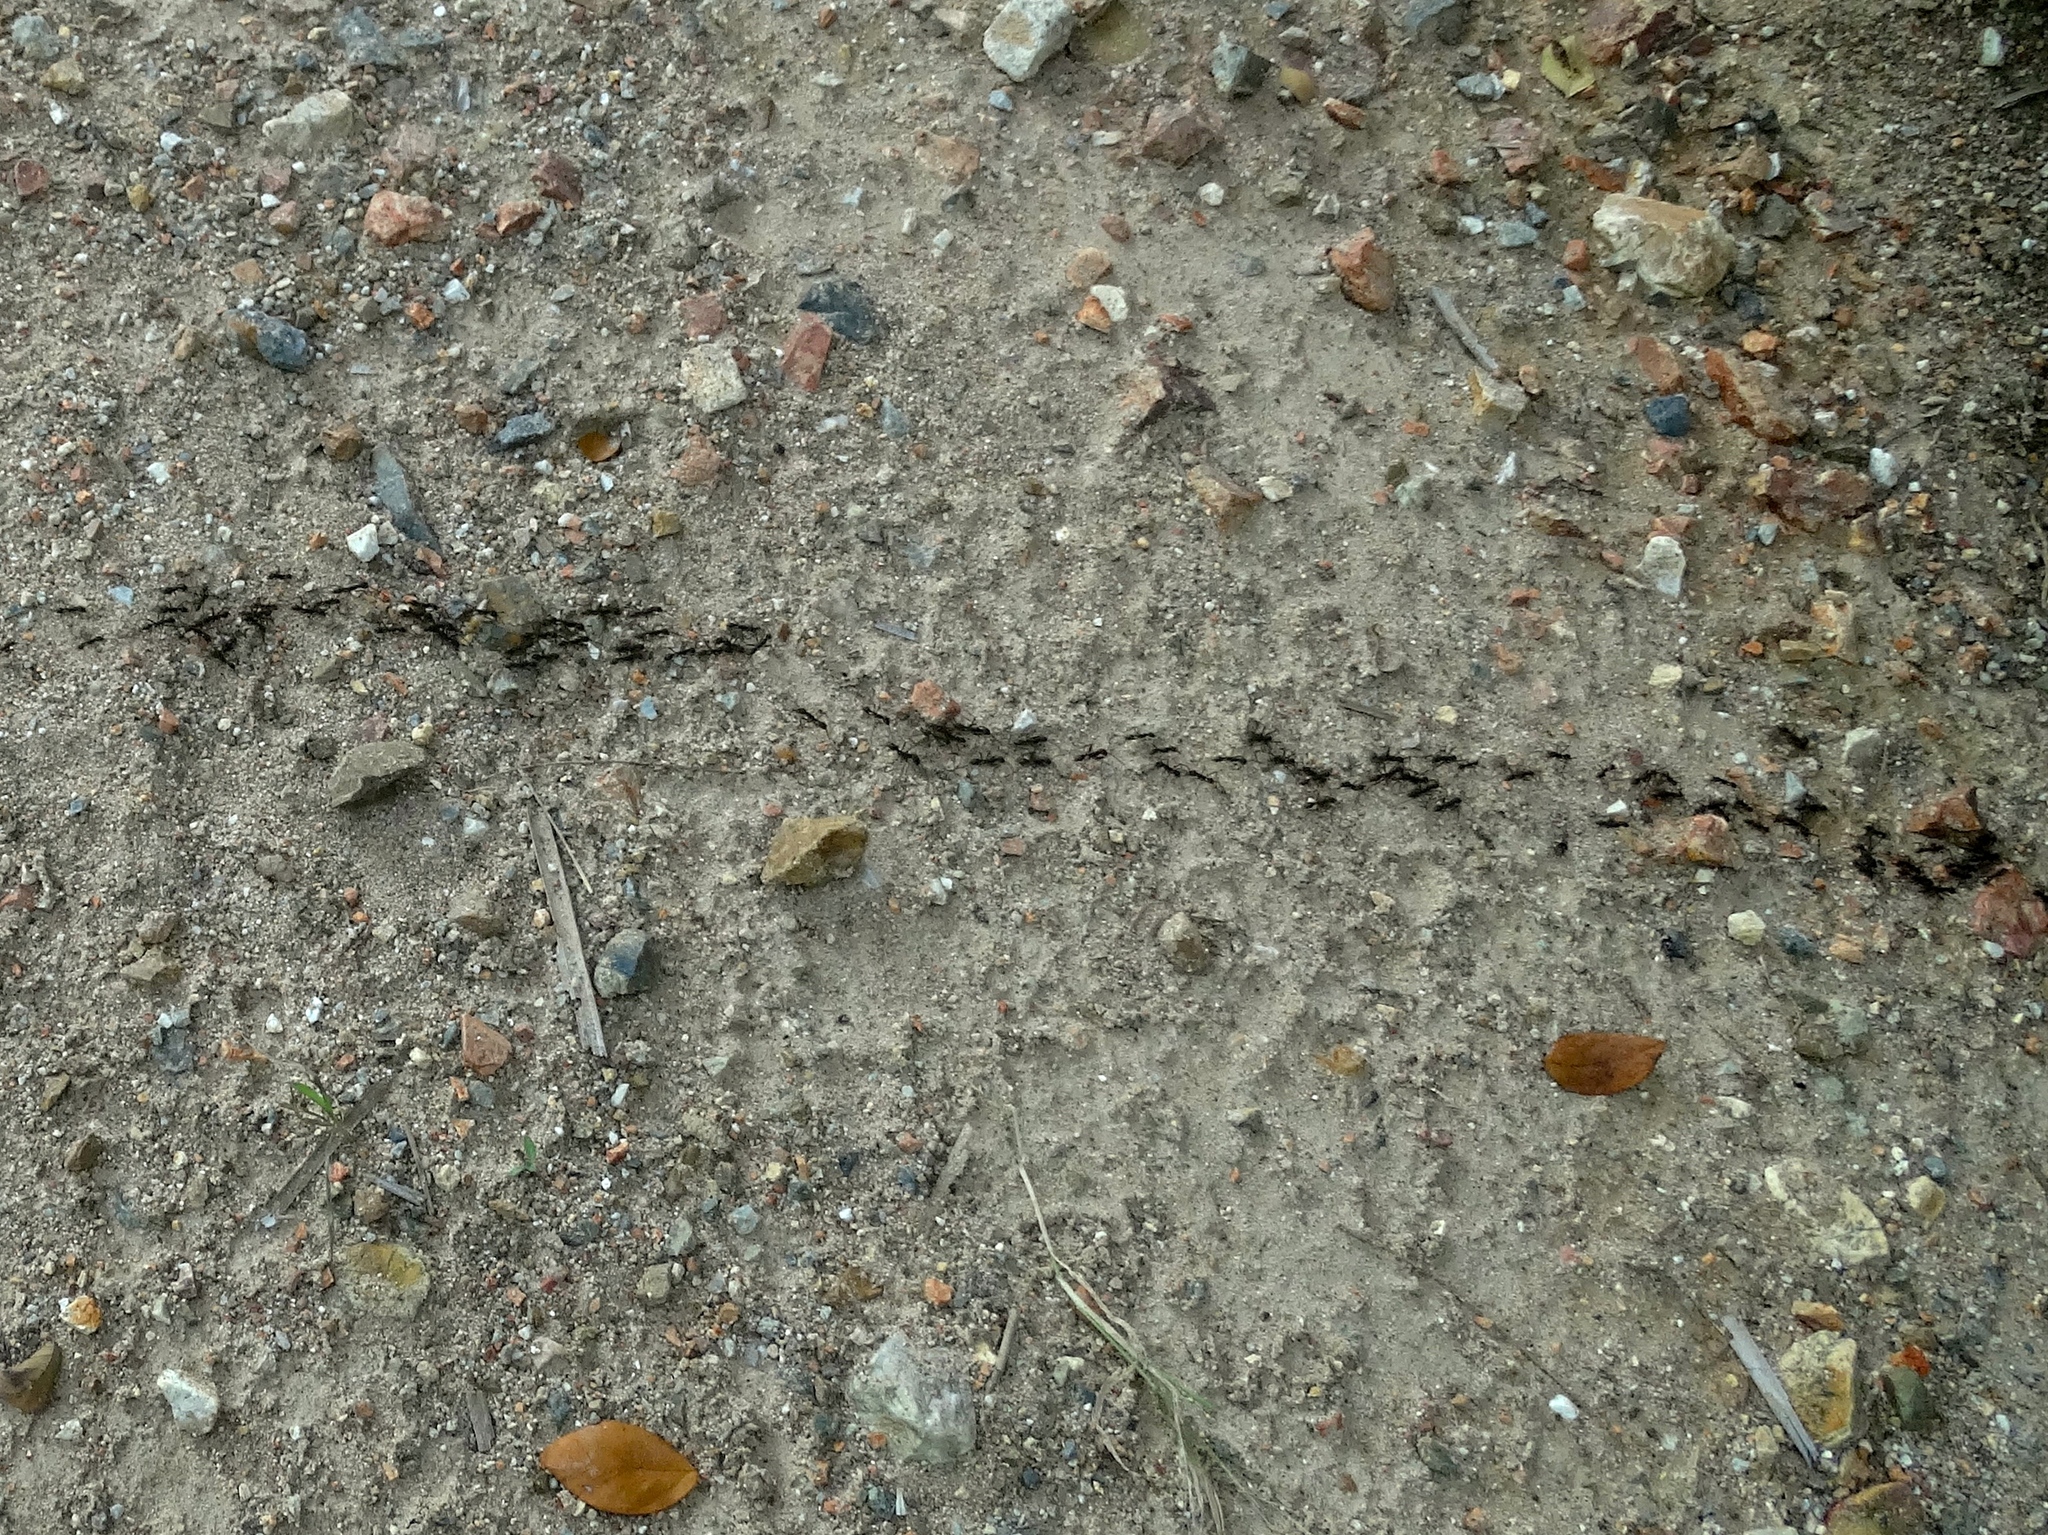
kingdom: Animalia
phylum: Arthropoda
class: Insecta
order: Hymenoptera
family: Formicidae
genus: Eciton
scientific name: Eciton burchellii
